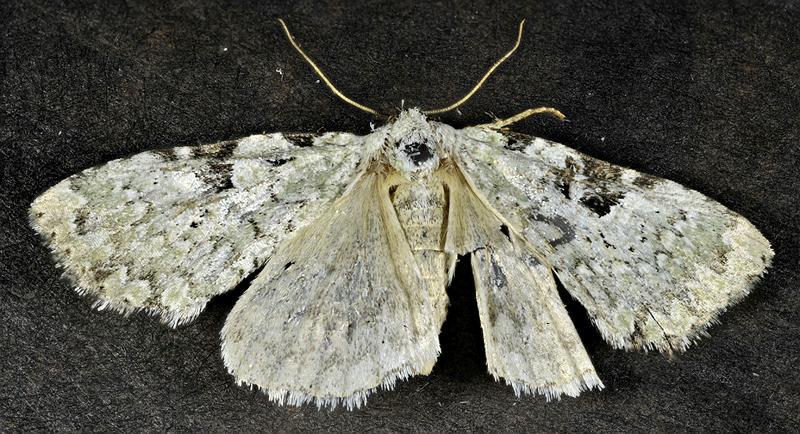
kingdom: Animalia
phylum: Arthropoda
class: Insecta
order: Lepidoptera
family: Noctuidae
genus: Leuconycta
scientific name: Leuconycta diphteroides
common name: Green leuconycta moth
